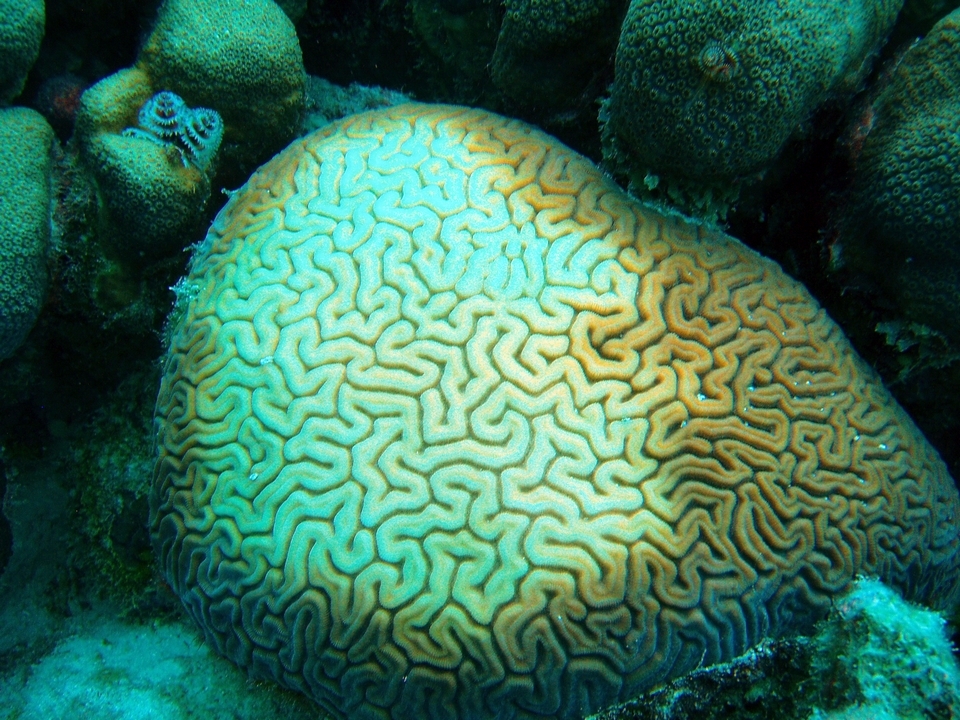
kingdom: Animalia
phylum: Cnidaria
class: Anthozoa
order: Scleractinia
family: Faviidae
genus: Diploria
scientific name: Diploria labyrinthiformis
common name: Grooved brain coral
